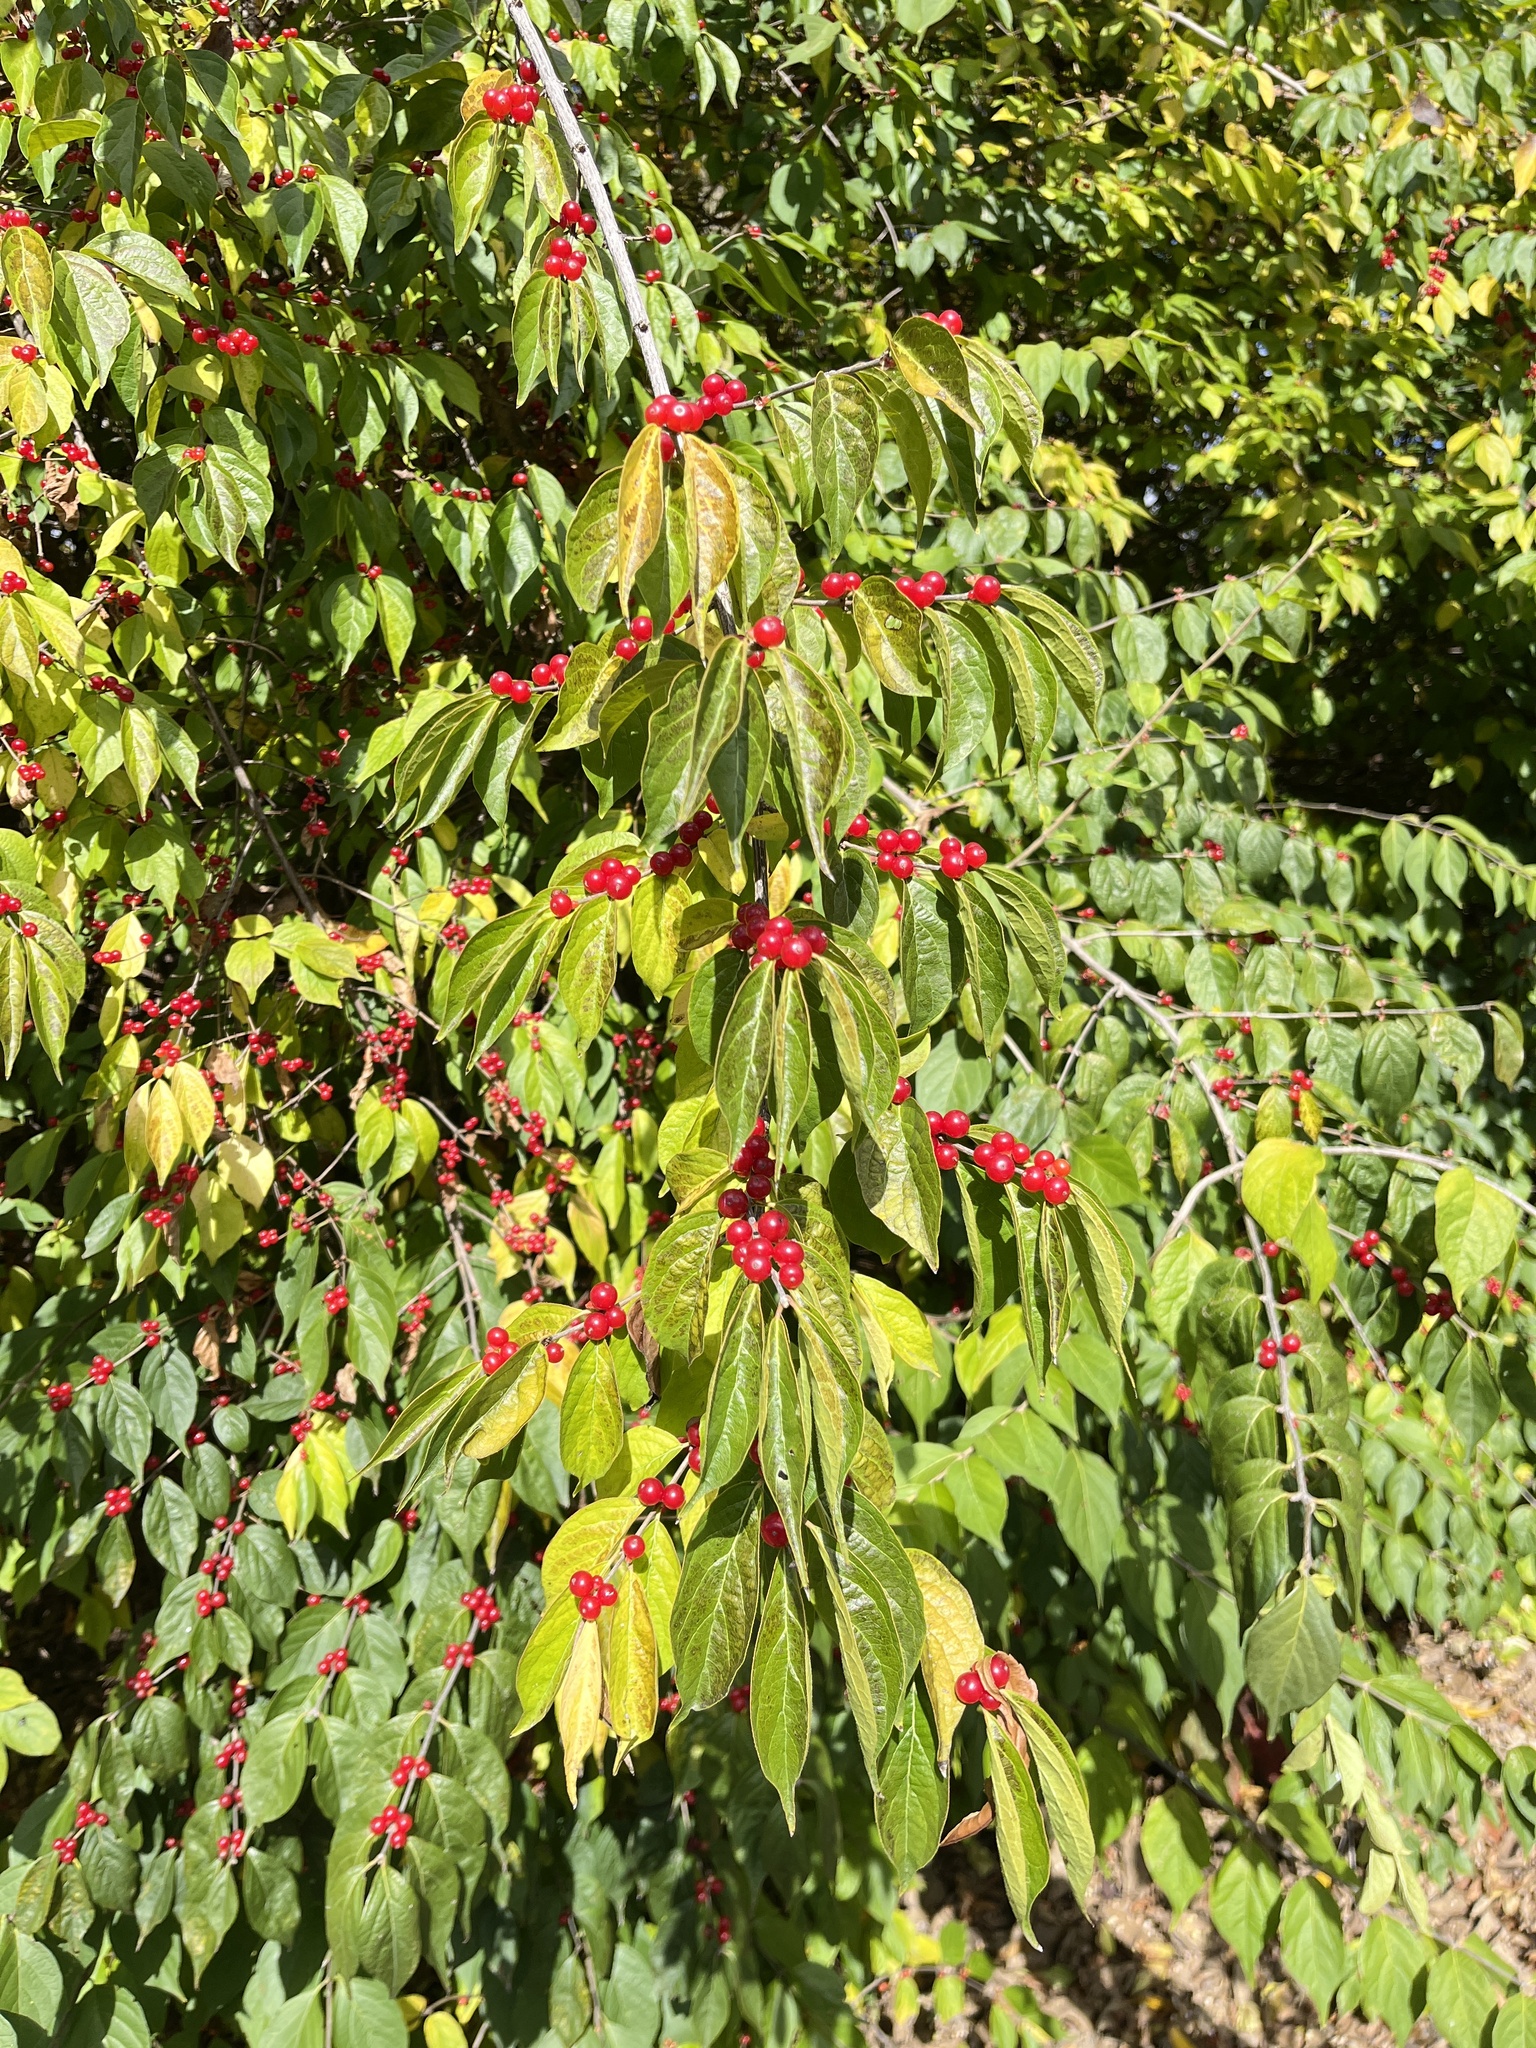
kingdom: Plantae
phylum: Tracheophyta
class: Magnoliopsida
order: Dipsacales
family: Caprifoliaceae
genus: Lonicera
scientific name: Lonicera maackii
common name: Amur honeysuckle
